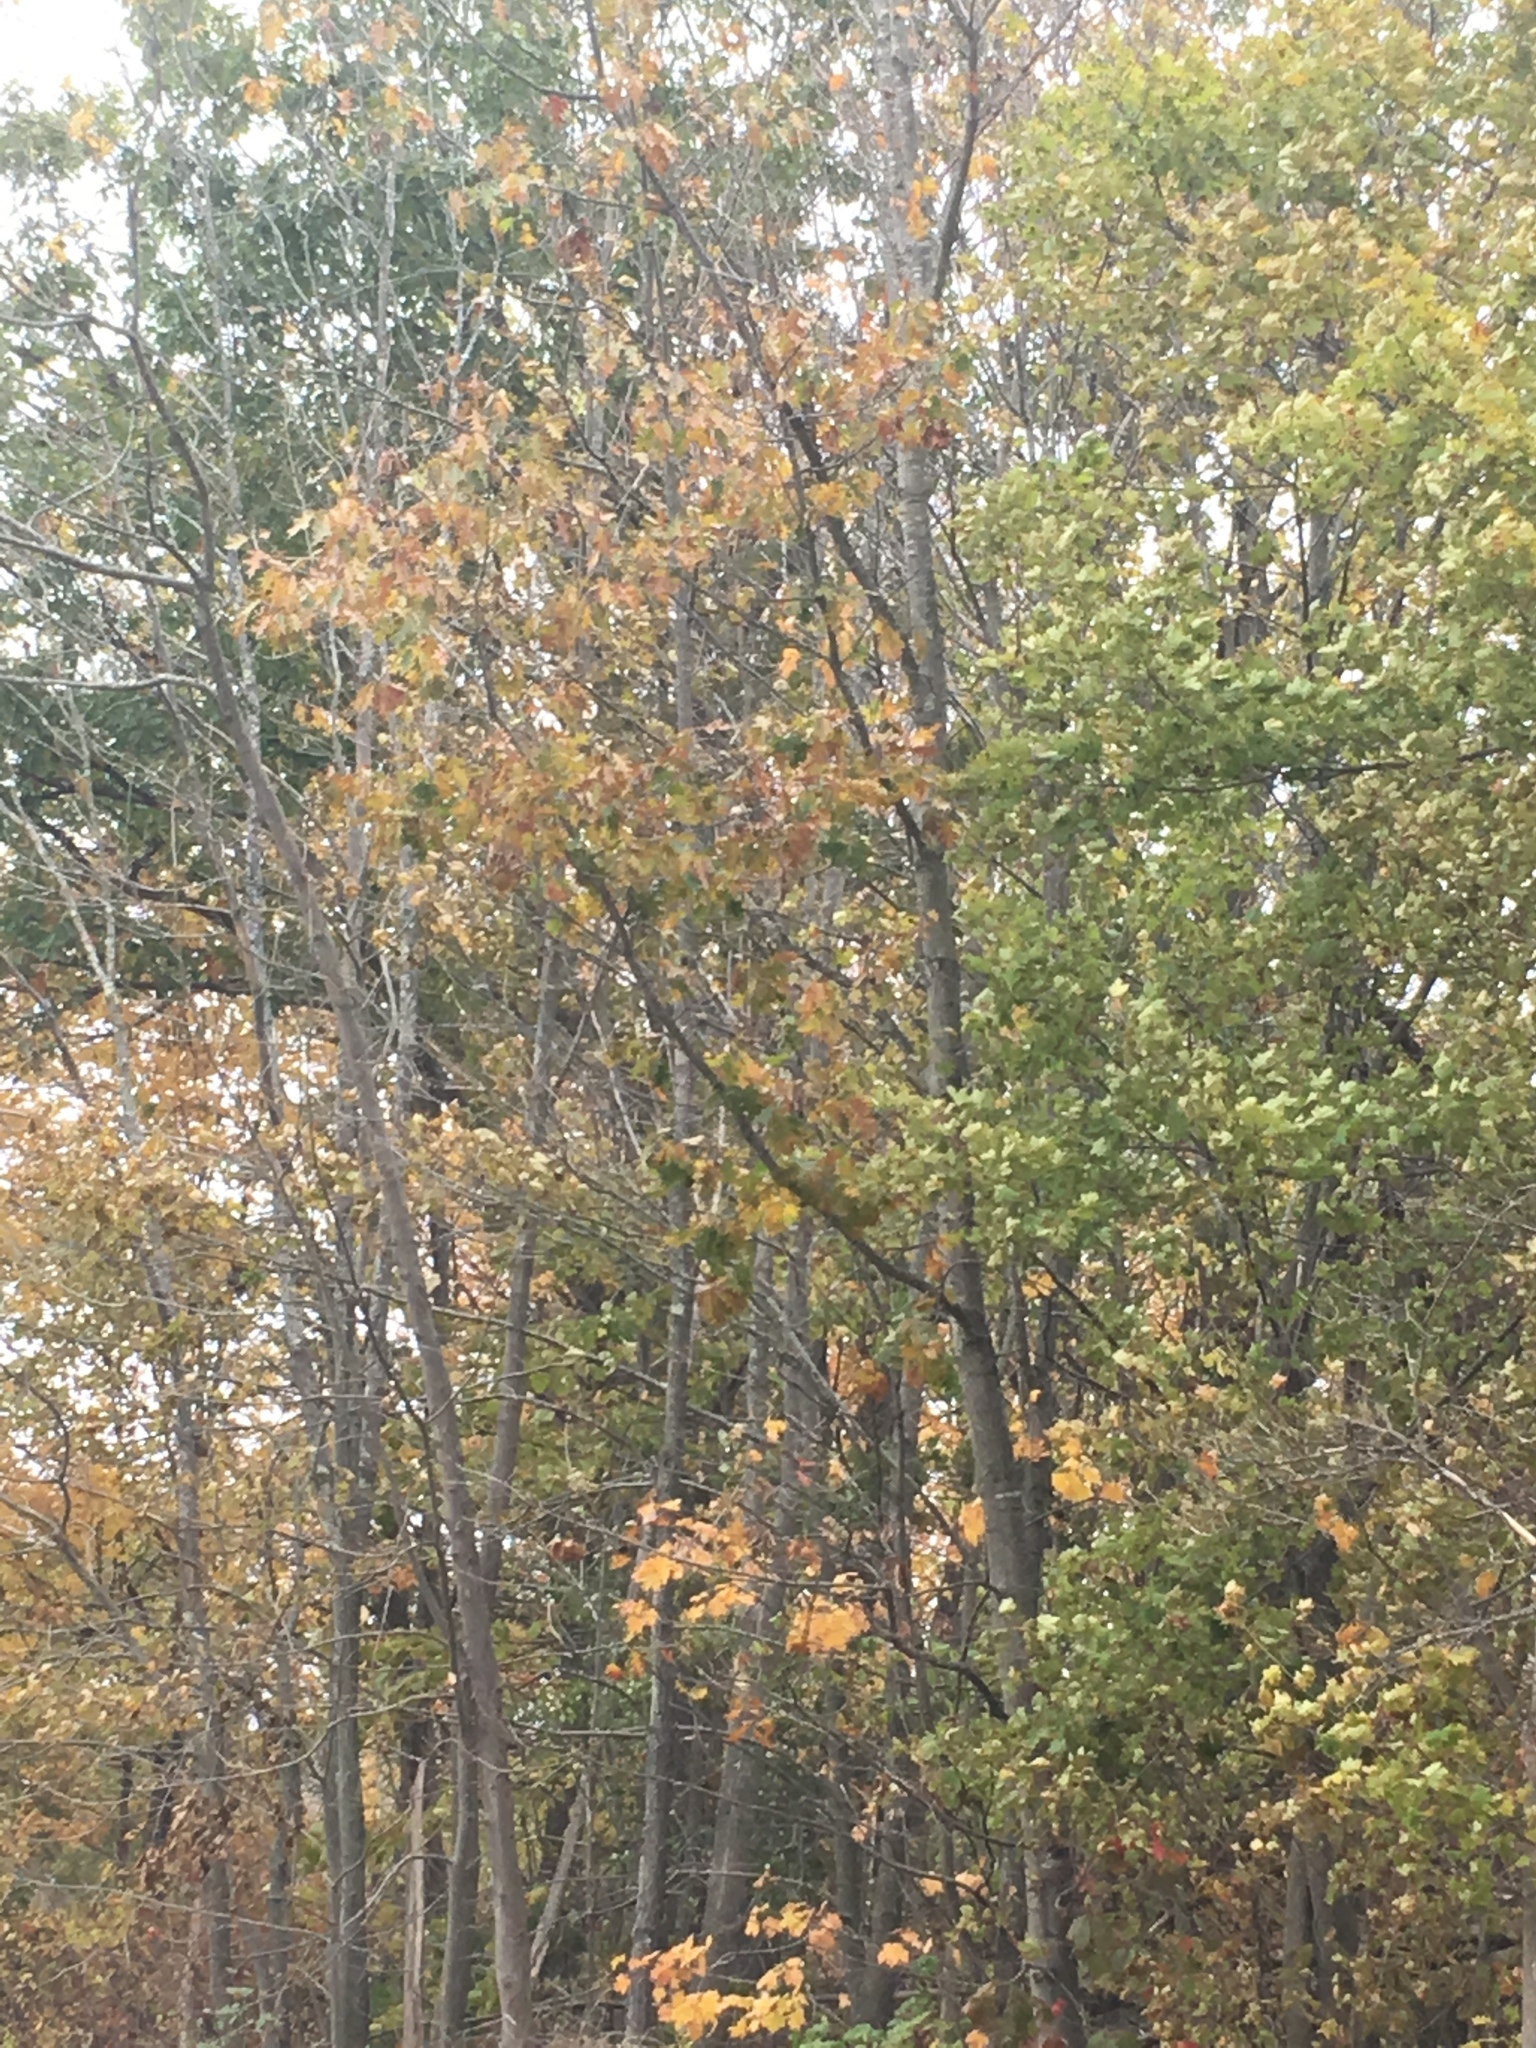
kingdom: Plantae
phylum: Tracheophyta
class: Magnoliopsida
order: Fagales
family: Fagaceae
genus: Quercus
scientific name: Quercus rubra
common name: Red oak
